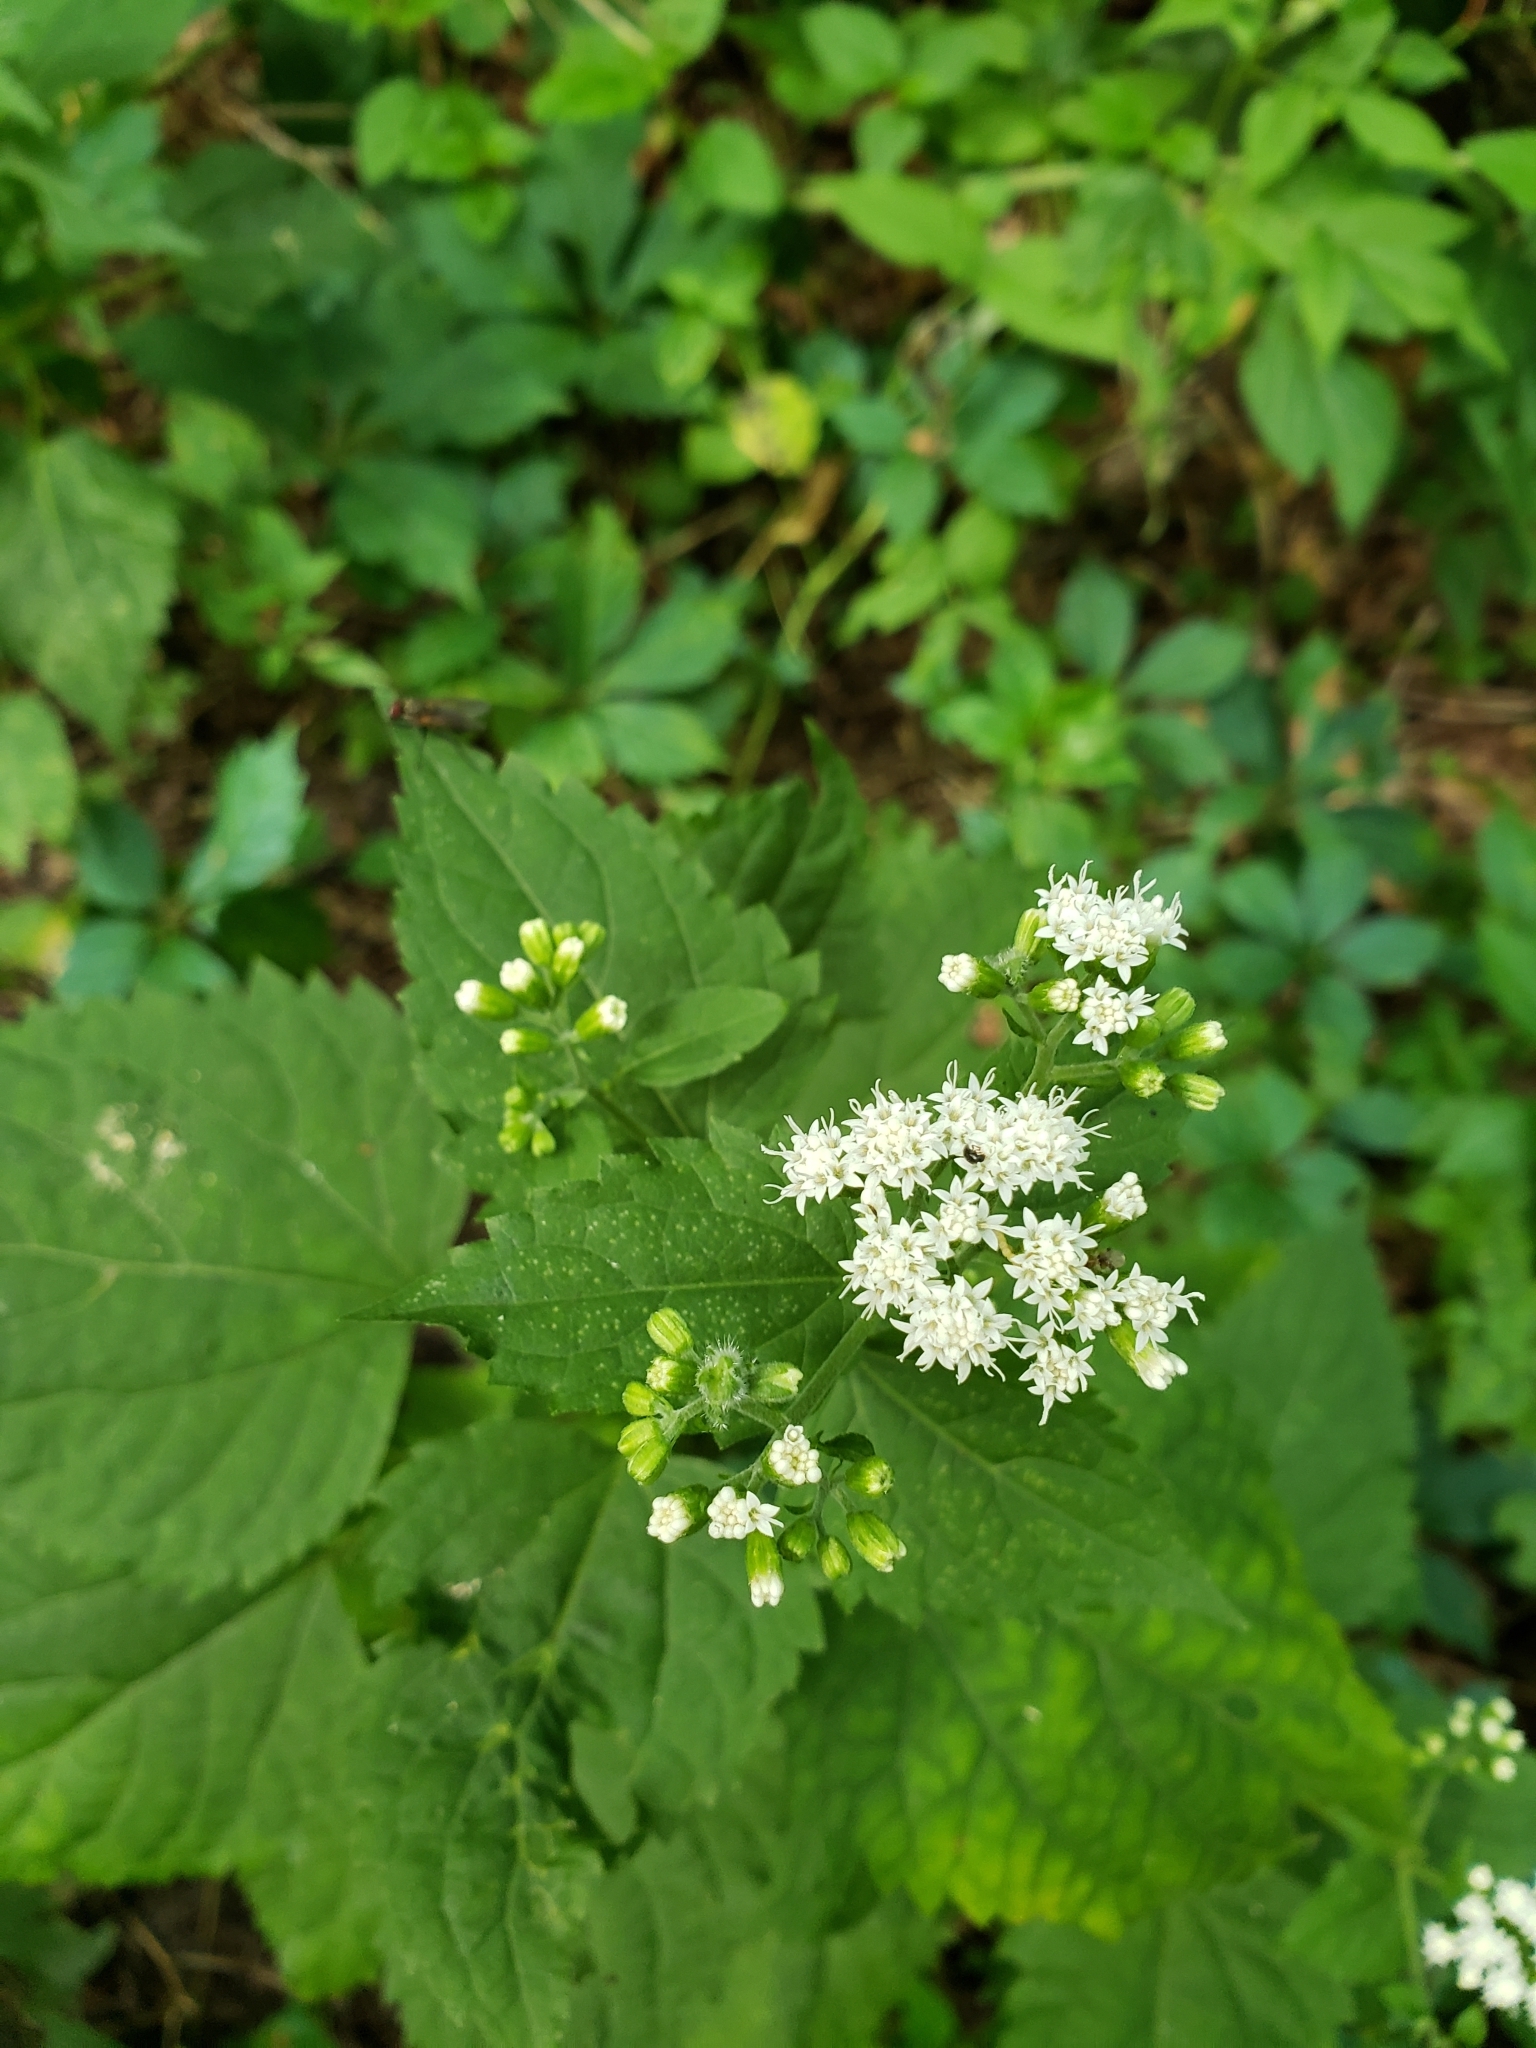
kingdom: Plantae
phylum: Tracheophyta
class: Magnoliopsida
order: Asterales
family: Asteraceae
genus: Ageratina
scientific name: Ageratina altissima
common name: White snakeroot
